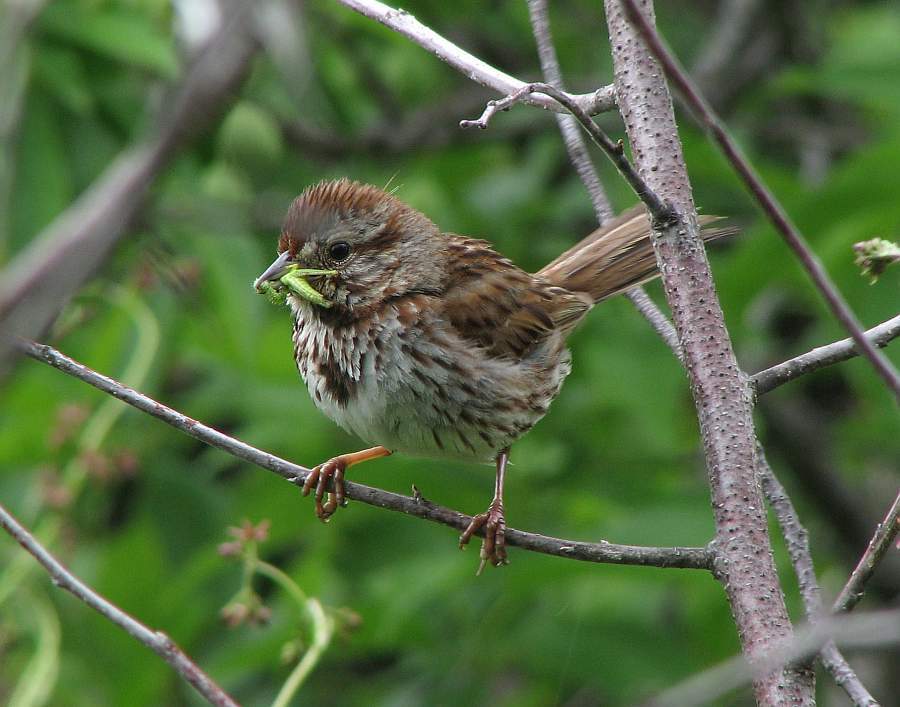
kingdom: Animalia
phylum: Chordata
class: Aves
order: Passeriformes
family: Passerellidae
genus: Melospiza
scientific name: Melospiza melodia
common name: Song sparrow
